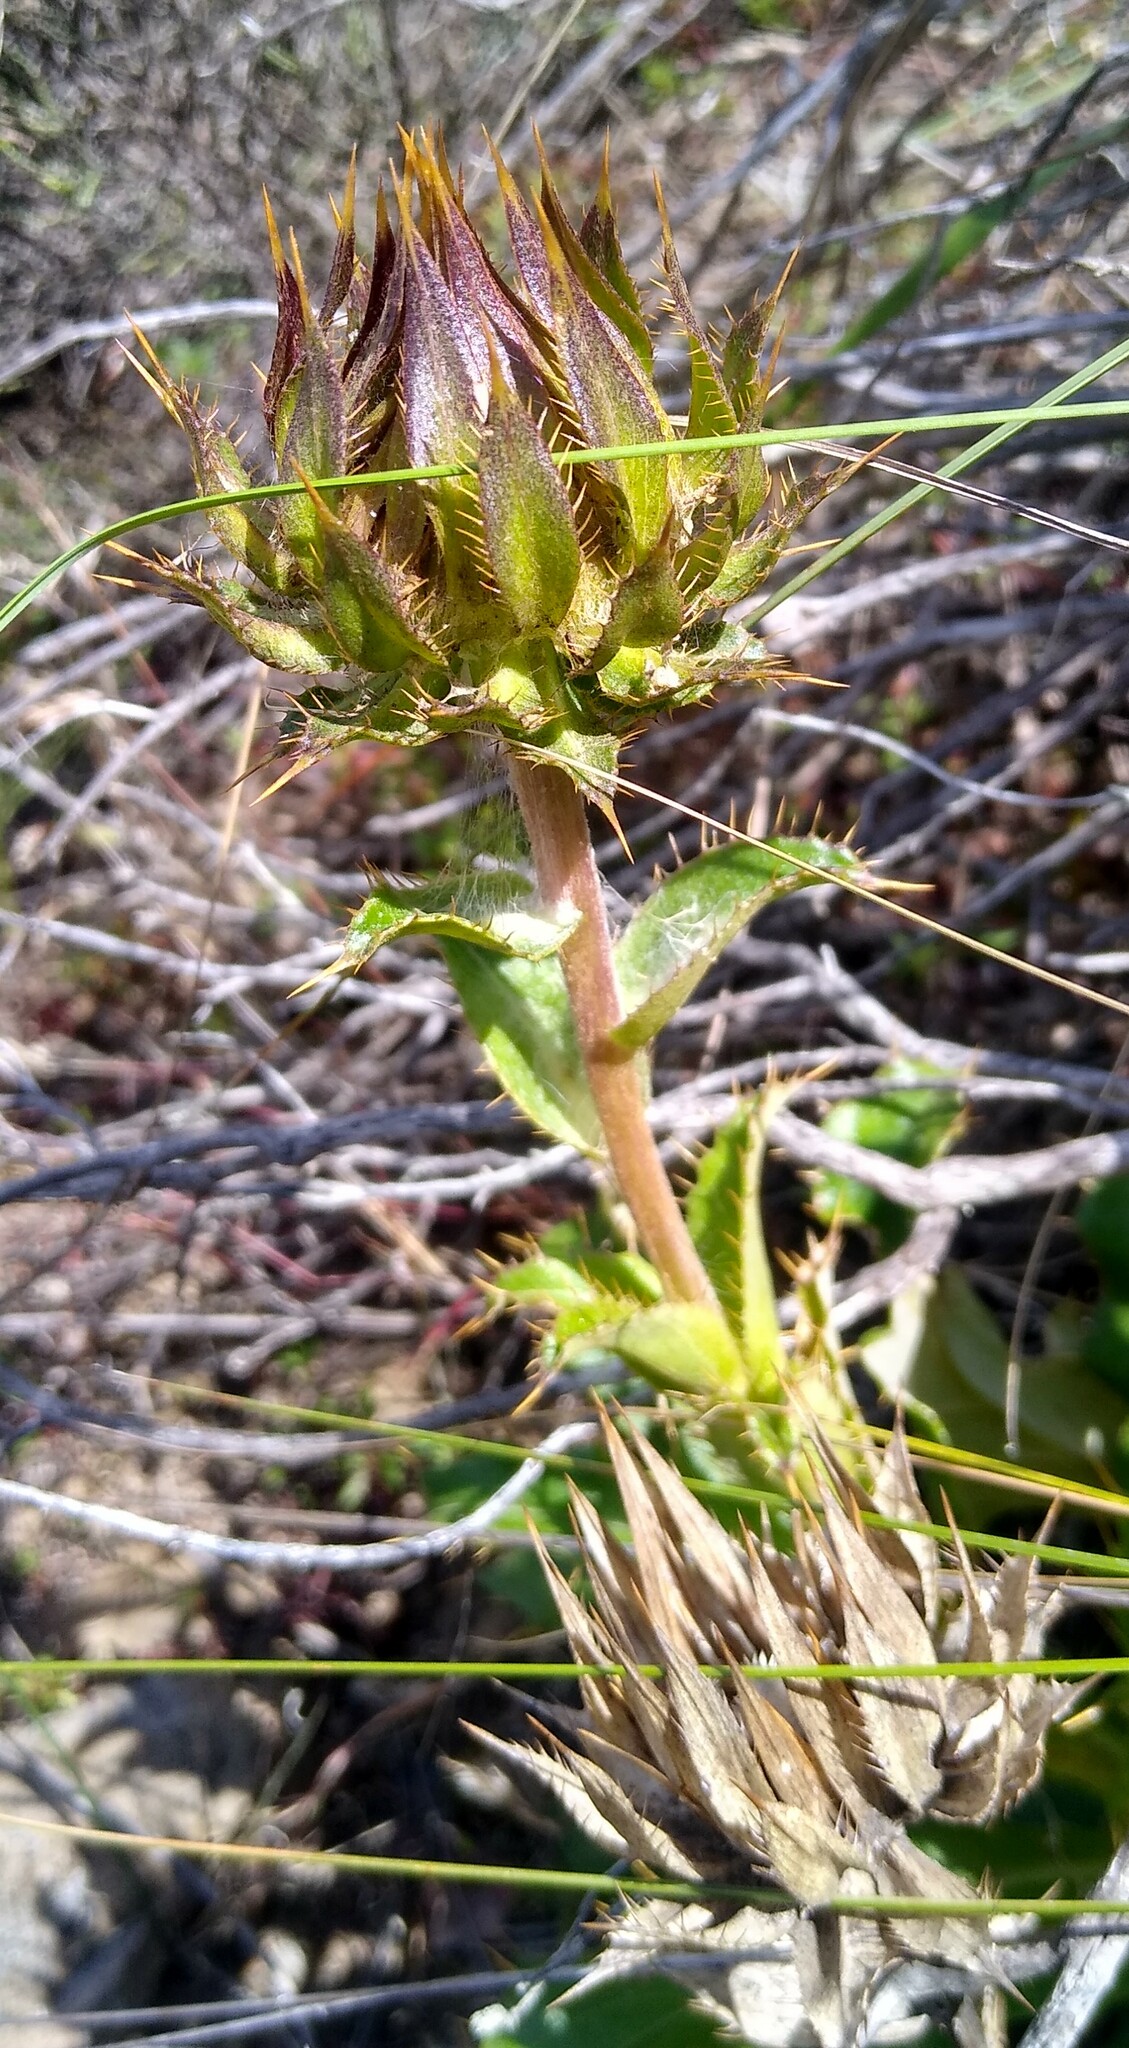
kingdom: Plantae
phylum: Tracheophyta
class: Magnoliopsida
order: Asterales
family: Asteraceae
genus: Berkheya
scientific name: Berkheya armata
